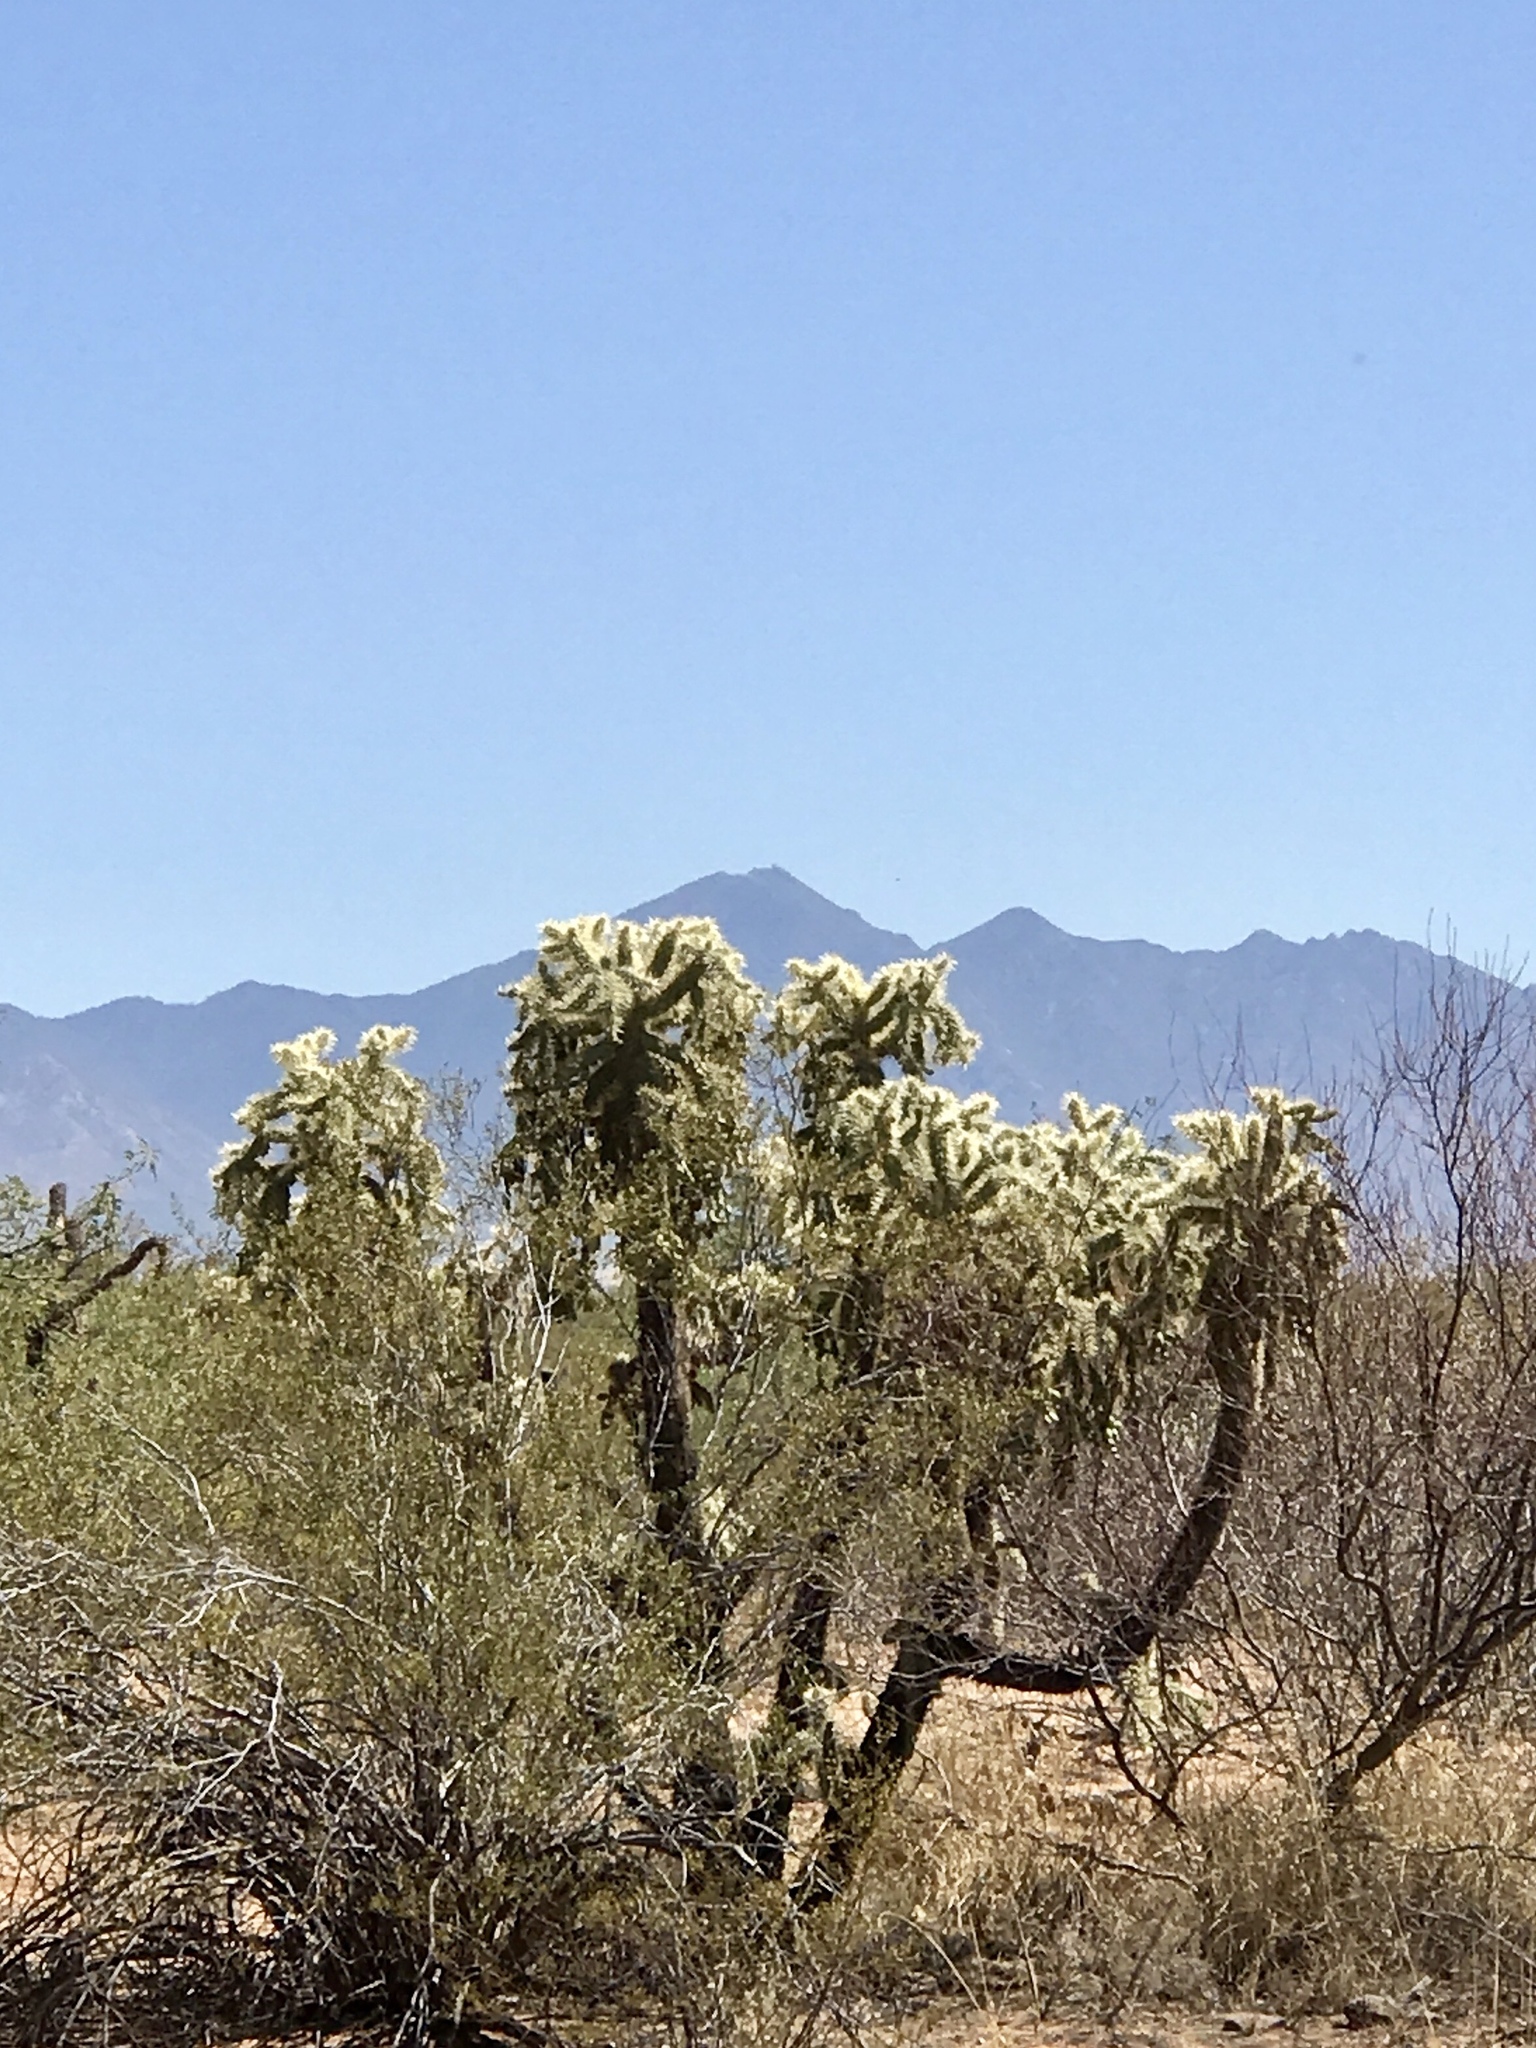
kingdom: Plantae
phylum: Tracheophyta
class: Magnoliopsida
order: Caryophyllales
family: Cactaceae
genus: Cylindropuntia
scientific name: Cylindropuntia fulgida
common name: Jumping cholla
